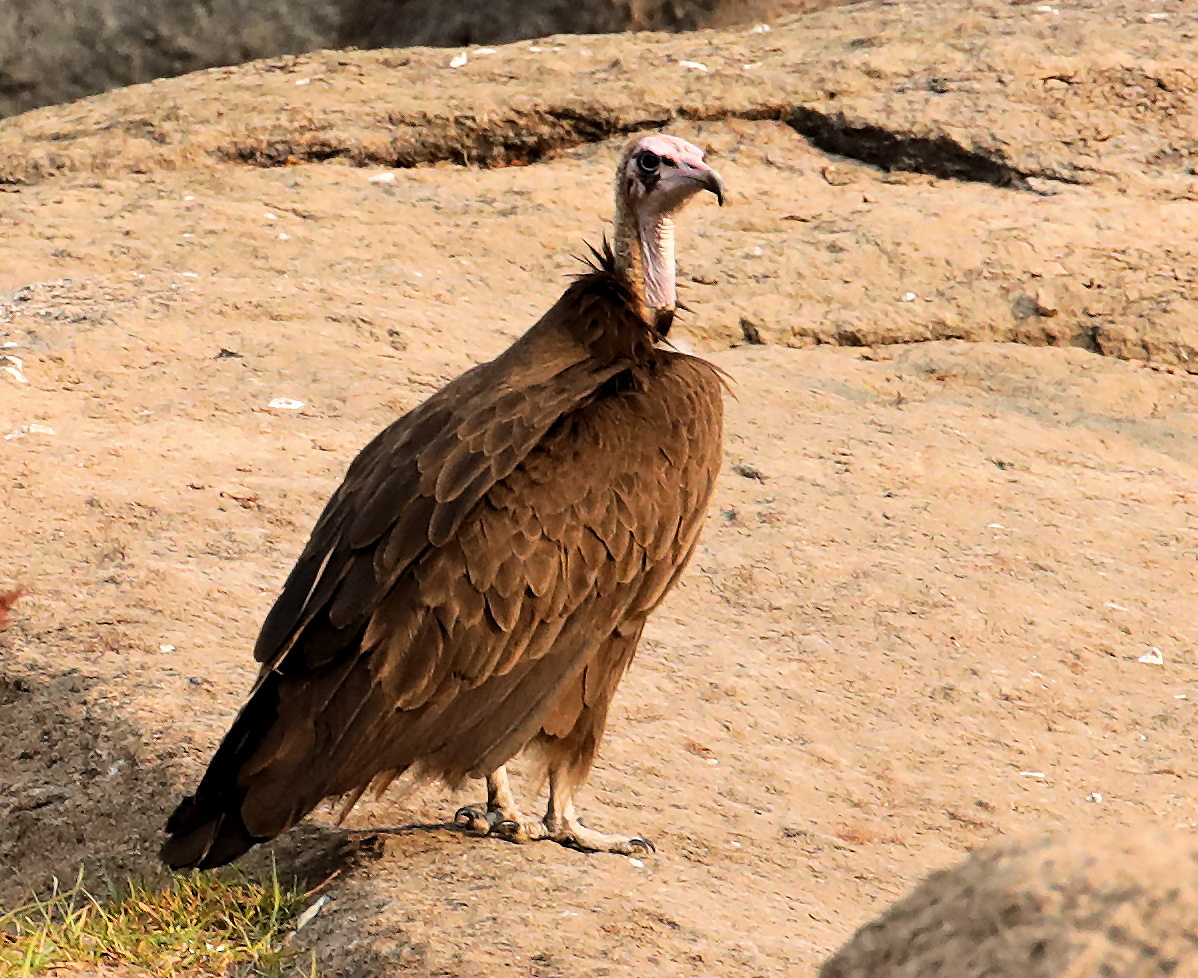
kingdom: Animalia
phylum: Chordata
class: Aves
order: Accipitriformes
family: Accipitridae
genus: Necrosyrtes
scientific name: Necrosyrtes monachus
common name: Hooded vulture
